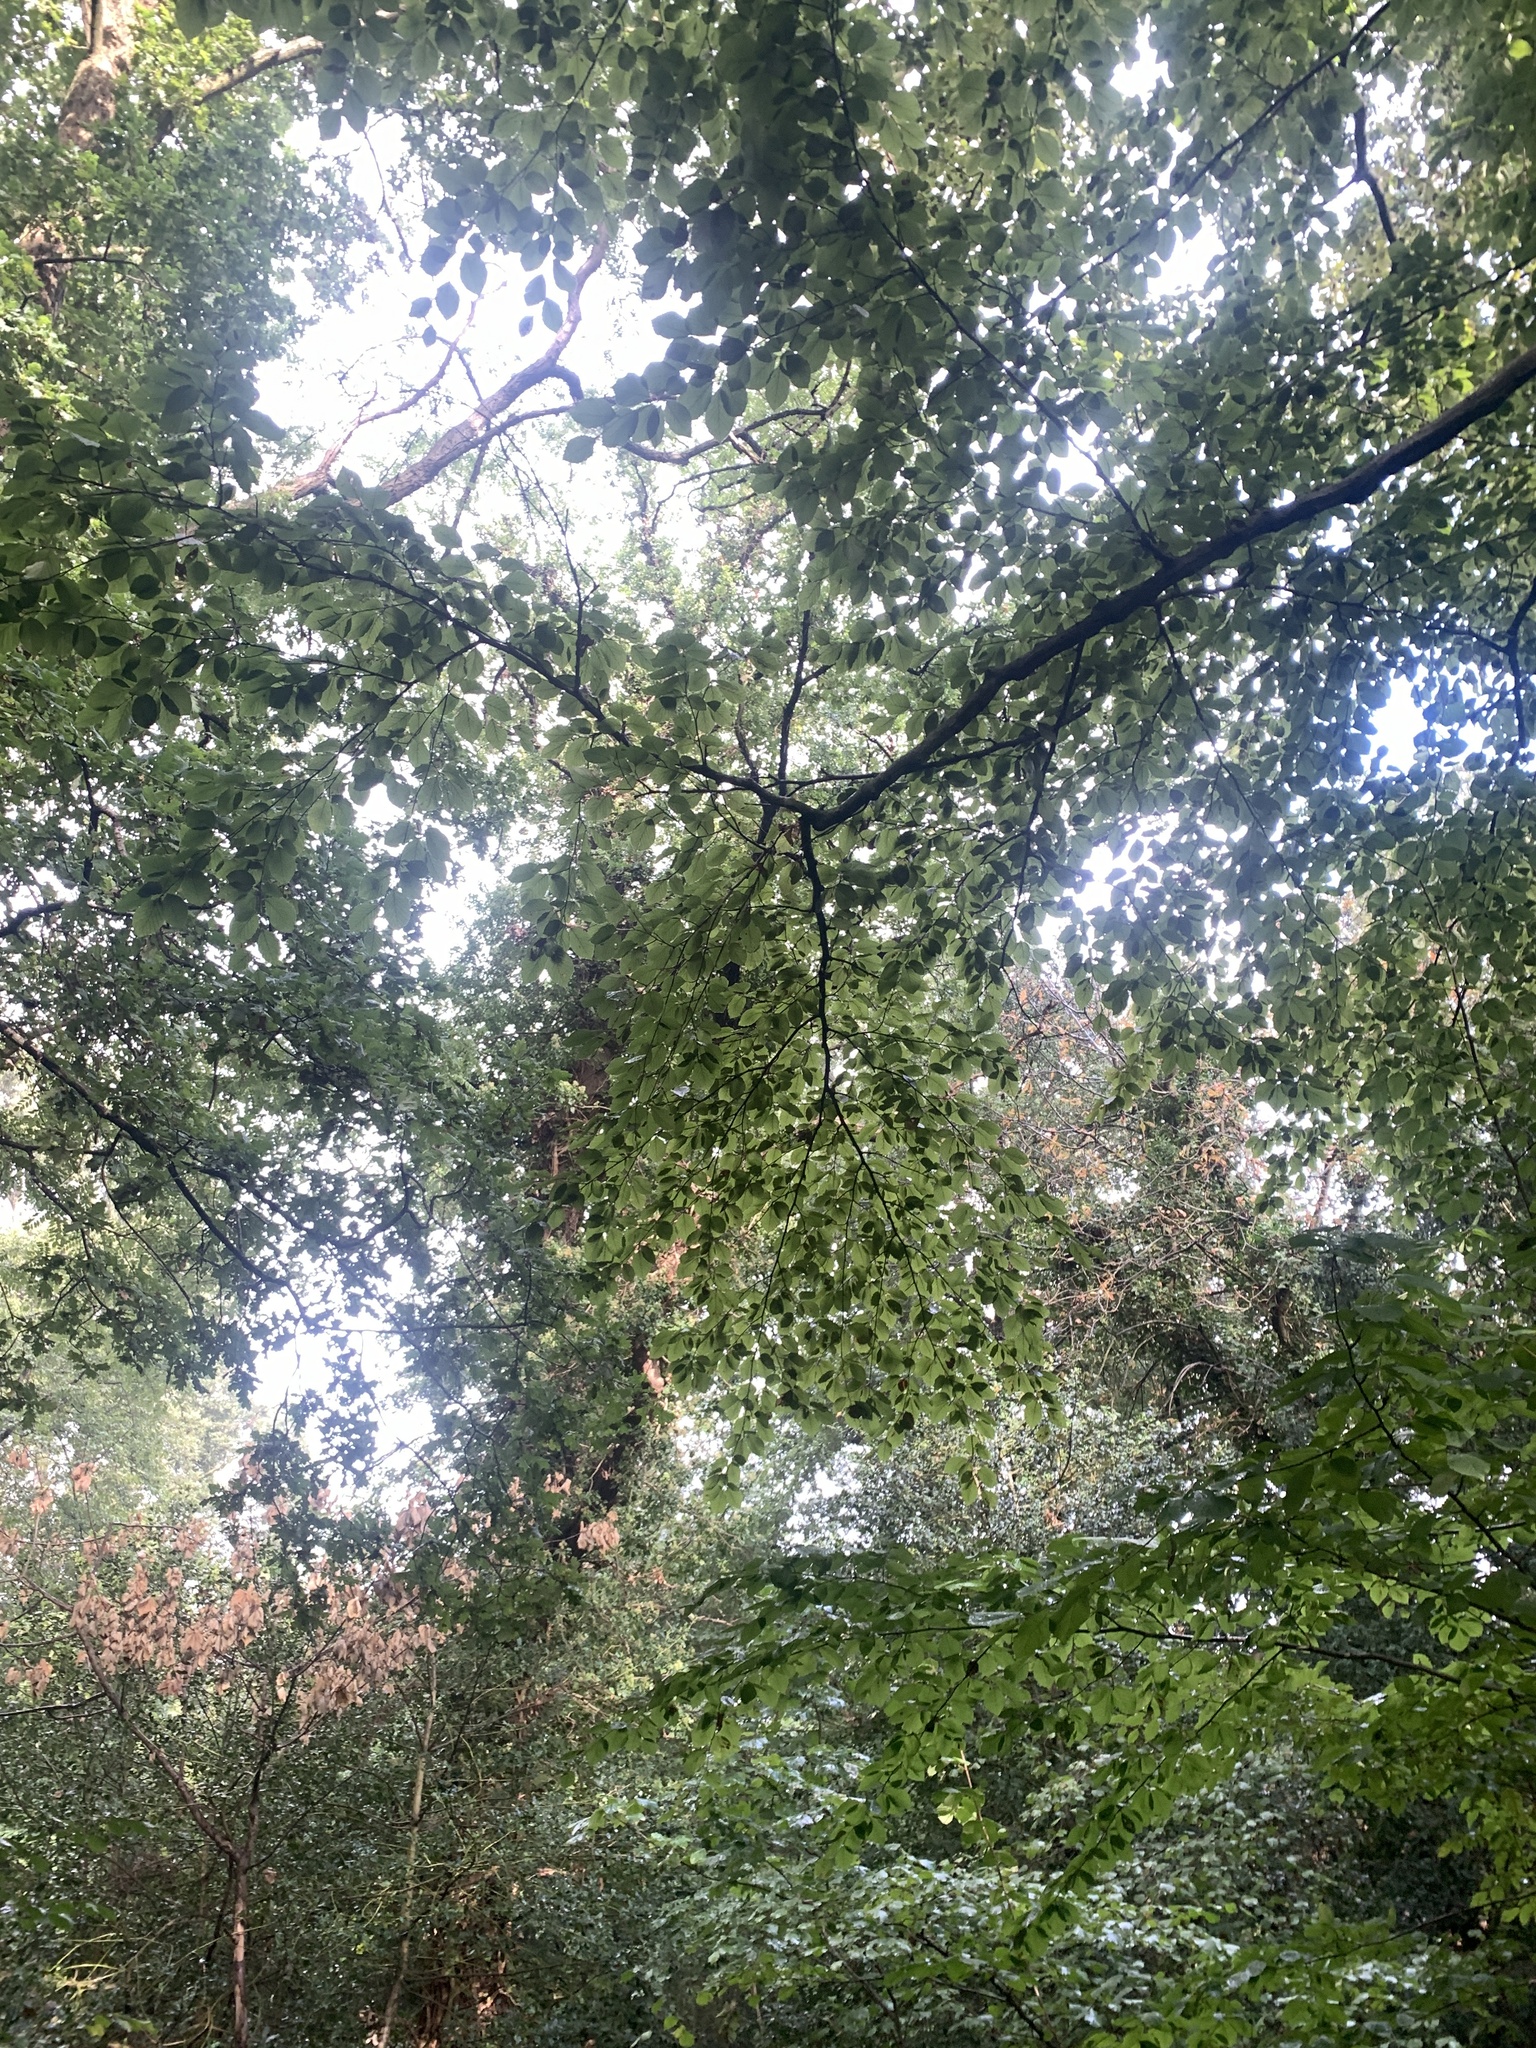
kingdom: Plantae
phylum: Tracheophyta
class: Magnoliopsida
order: Fagales
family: Fagaceae
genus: Fagus
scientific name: Fagus sylvatica
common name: Beech
